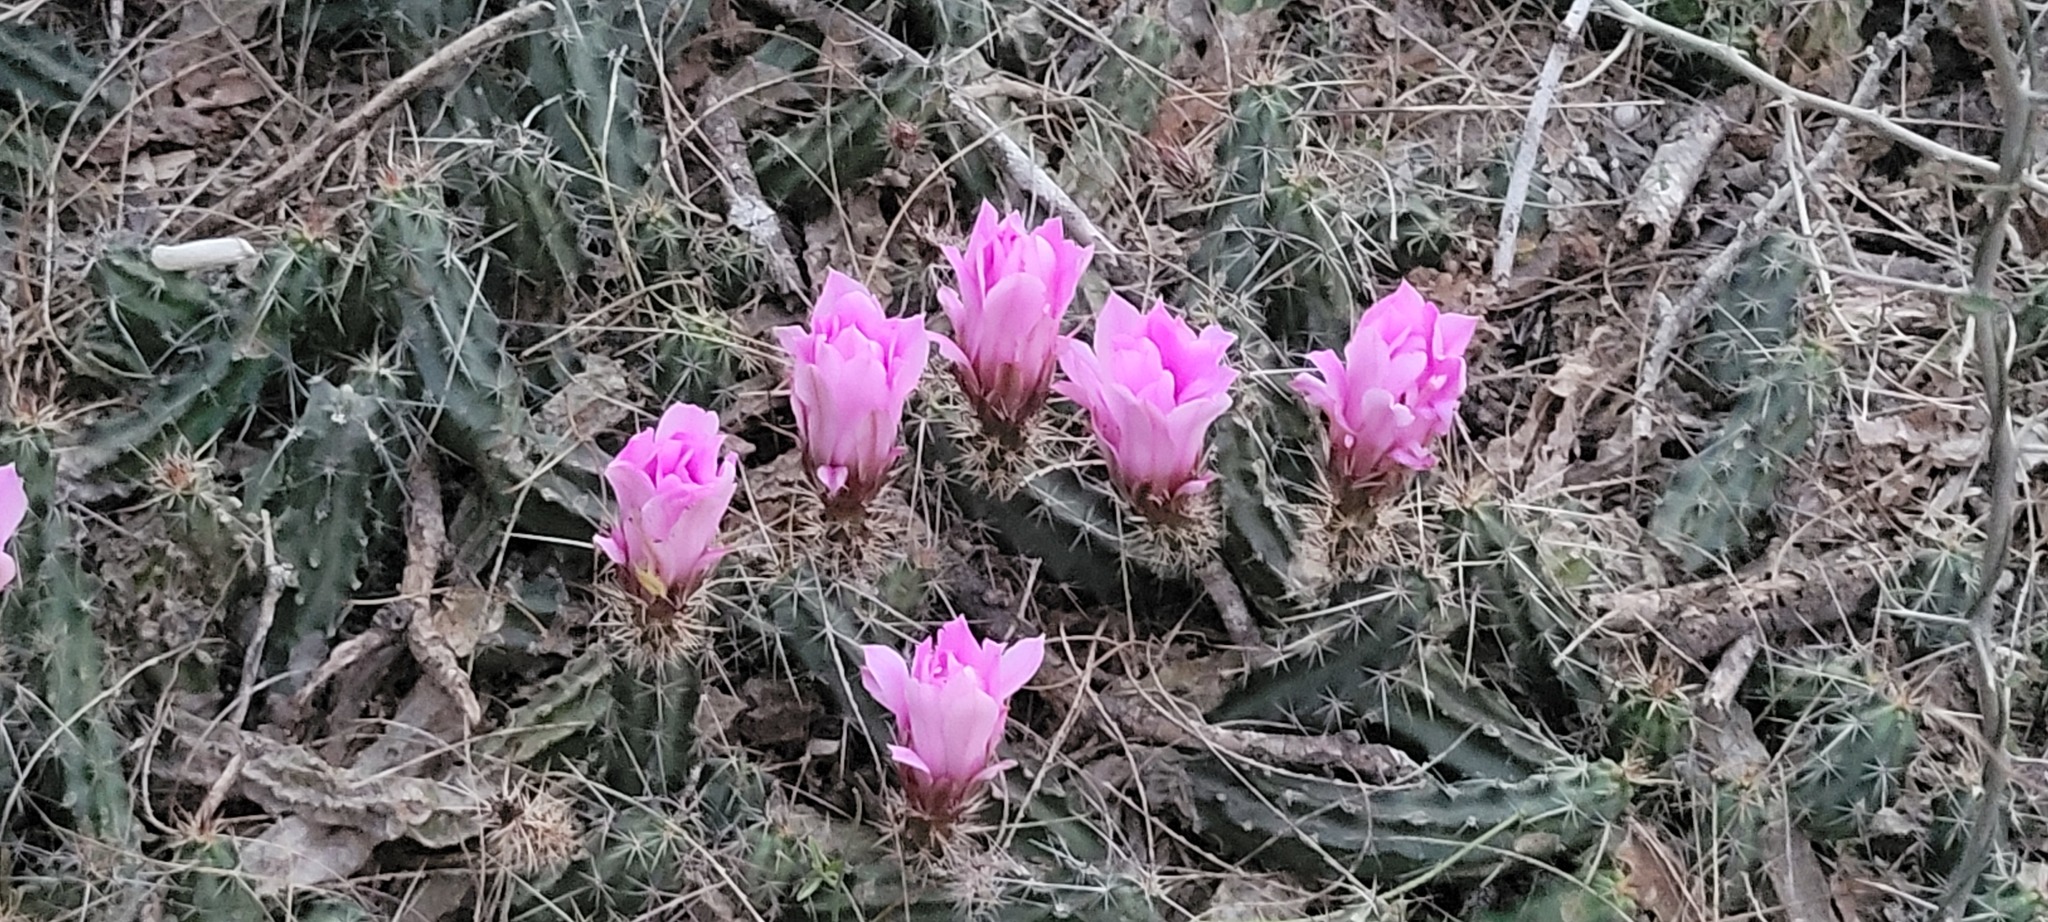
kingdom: Plantae
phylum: Tracheophyta
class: Magnoliopsida
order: Caryophyllales
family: Cactaceae
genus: Echinocereus
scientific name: Echinocereus berlandieri
